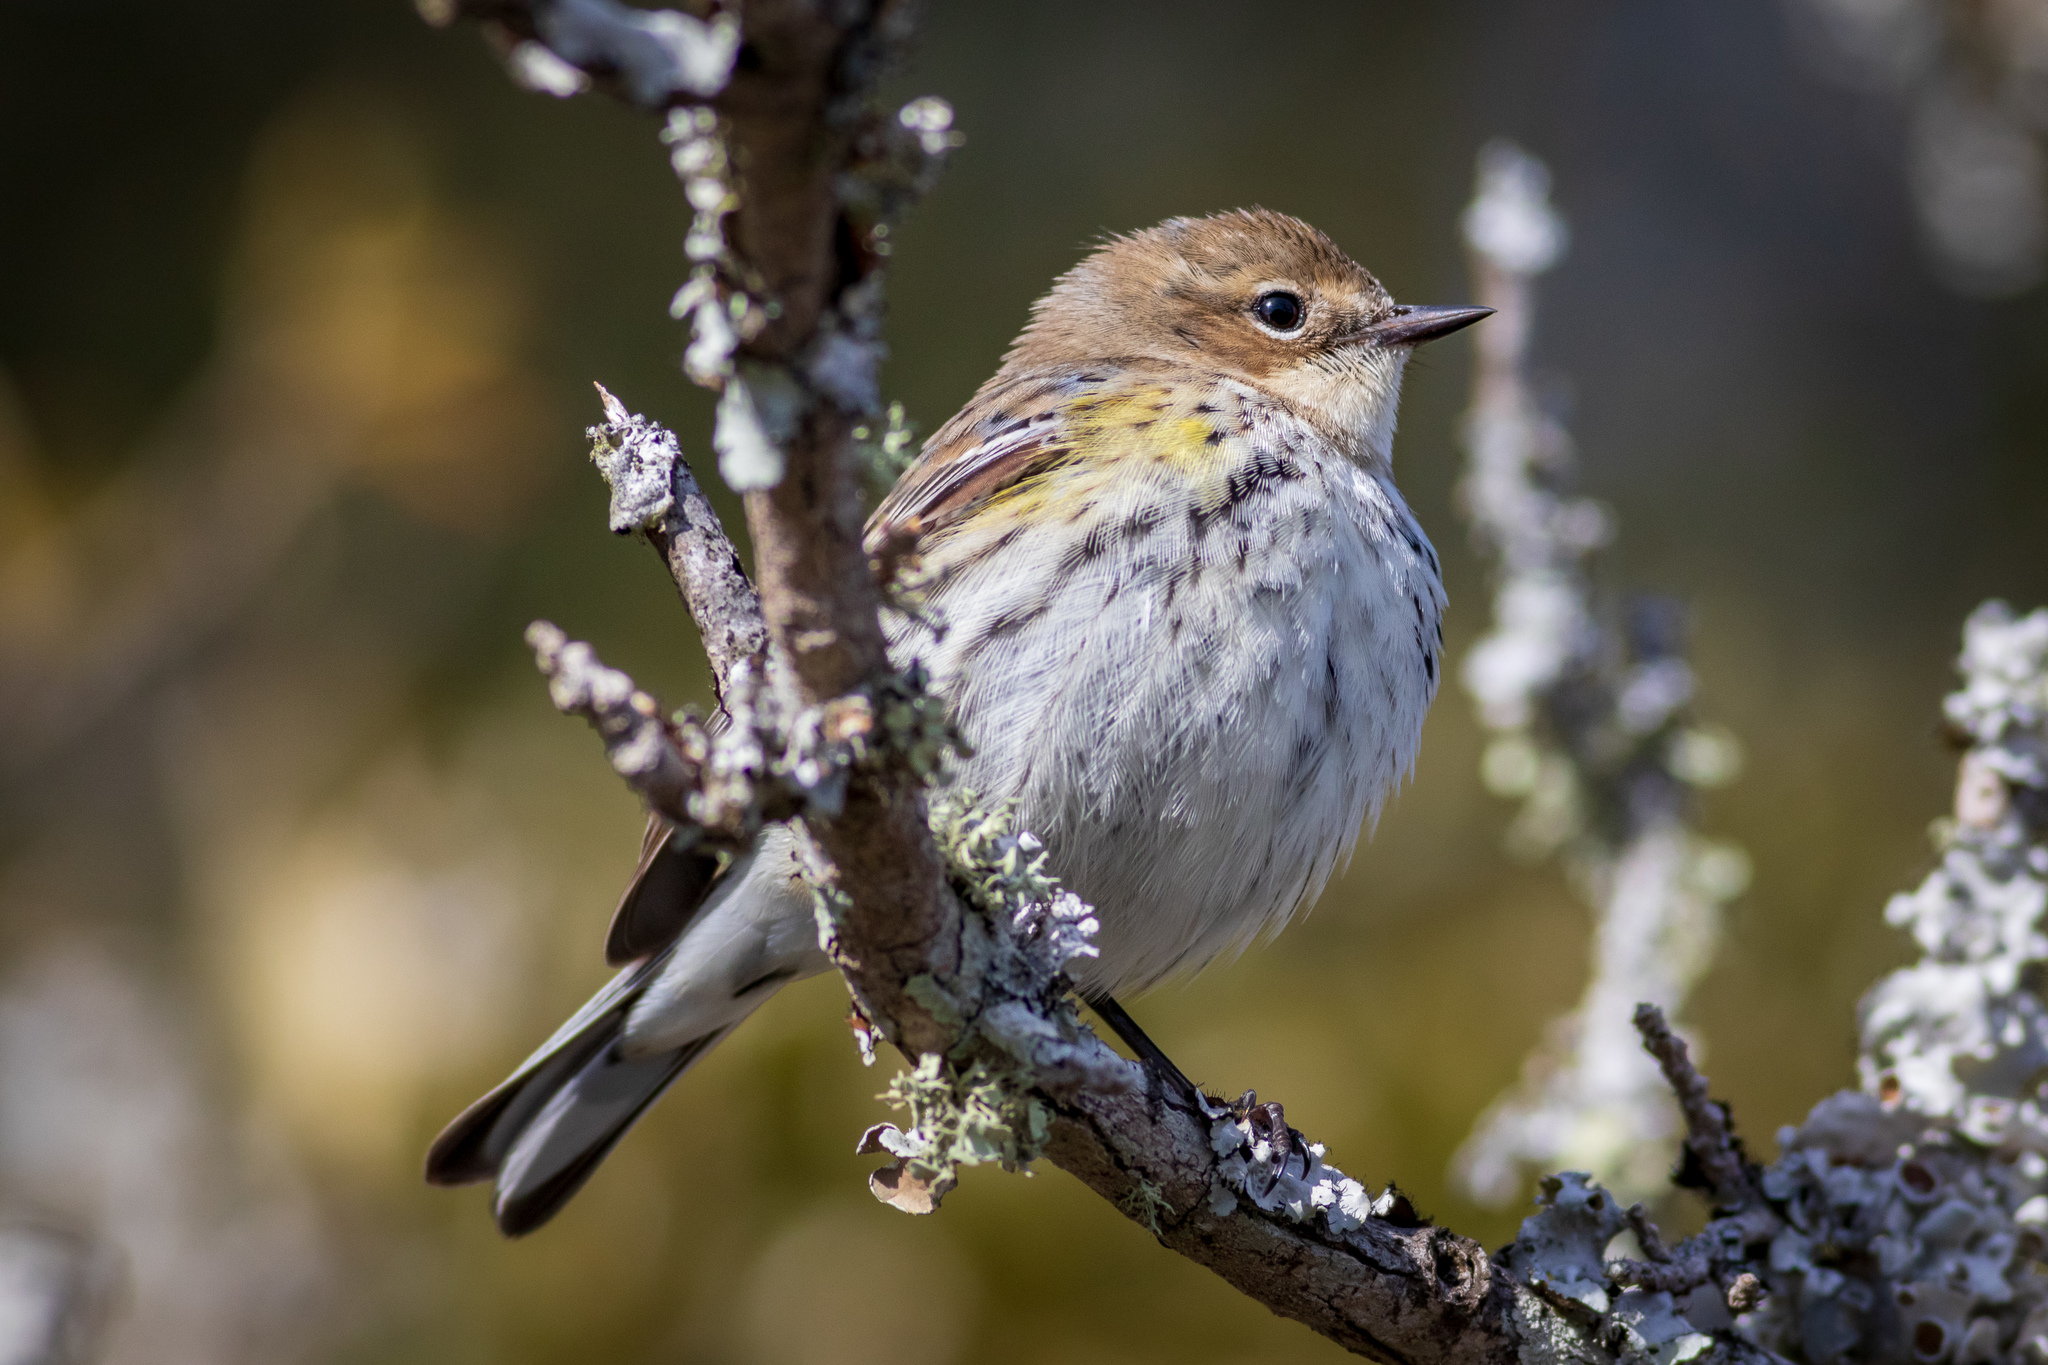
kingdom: Animalia
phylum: Chordata
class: Aves
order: Passeriformes
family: Parulidae
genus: Setophaga
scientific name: Setophaga coronata
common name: Myrtle warbler
